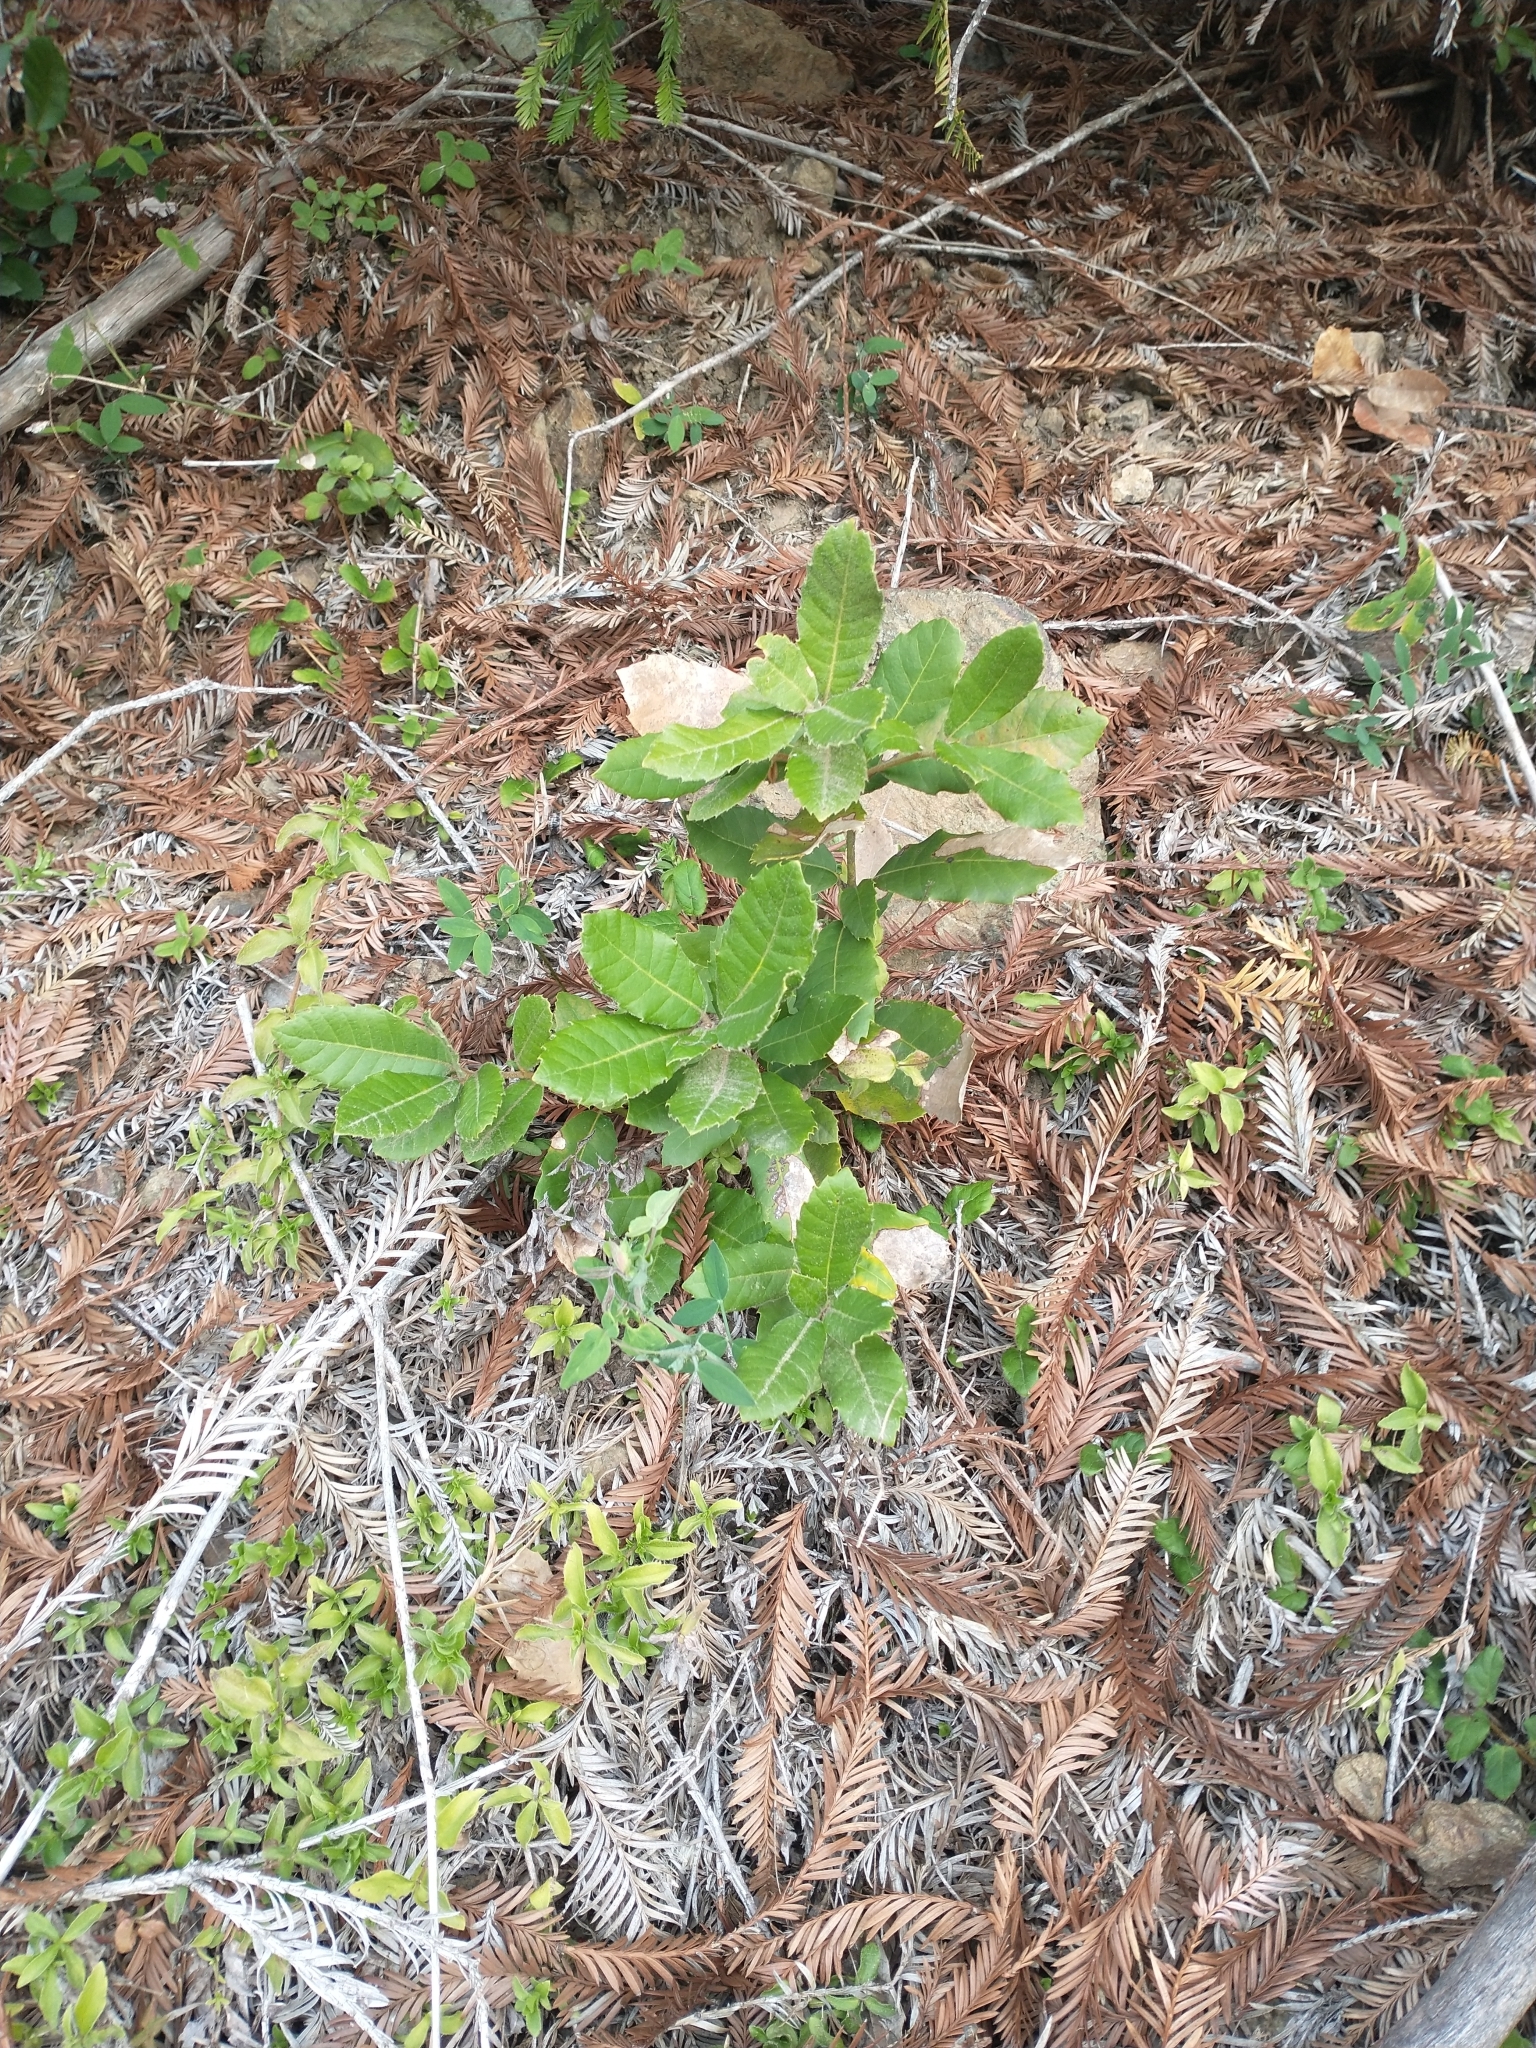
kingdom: Plantae
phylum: Tracheophyta
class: Magnoliopsida
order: Fagales
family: Fagaceae
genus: Notholithocarpus
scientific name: Notholithocarpus densiflorus
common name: Tan bark oak
